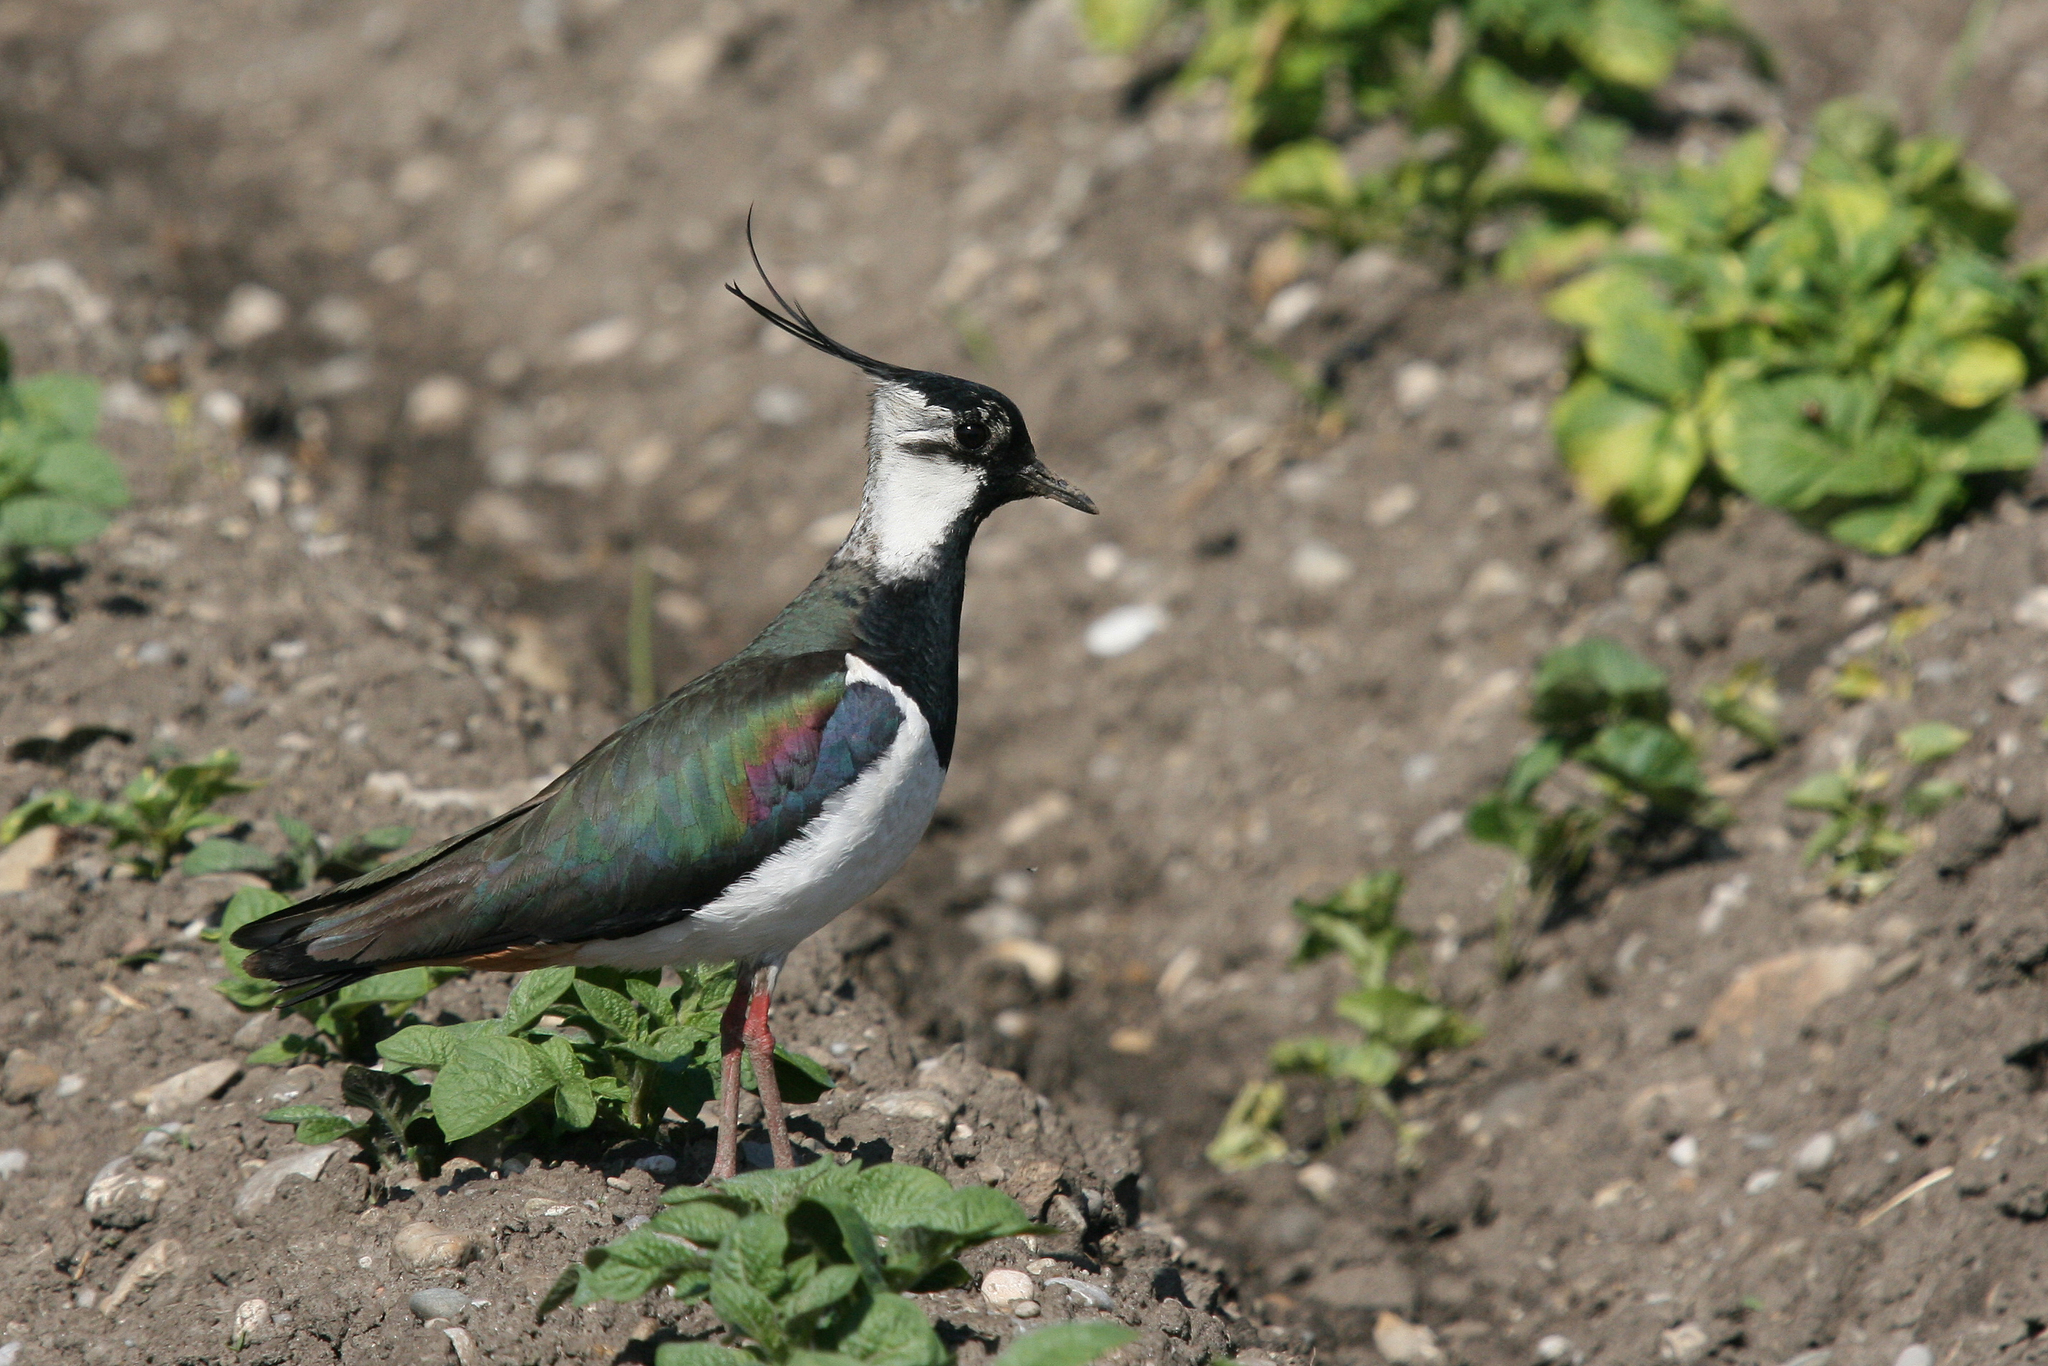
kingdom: Animalia
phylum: Chordata
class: Aves
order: Charadriiformes
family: Charadriidae
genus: Vanellus
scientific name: Vanellus vanellus
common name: Northern lapwing
